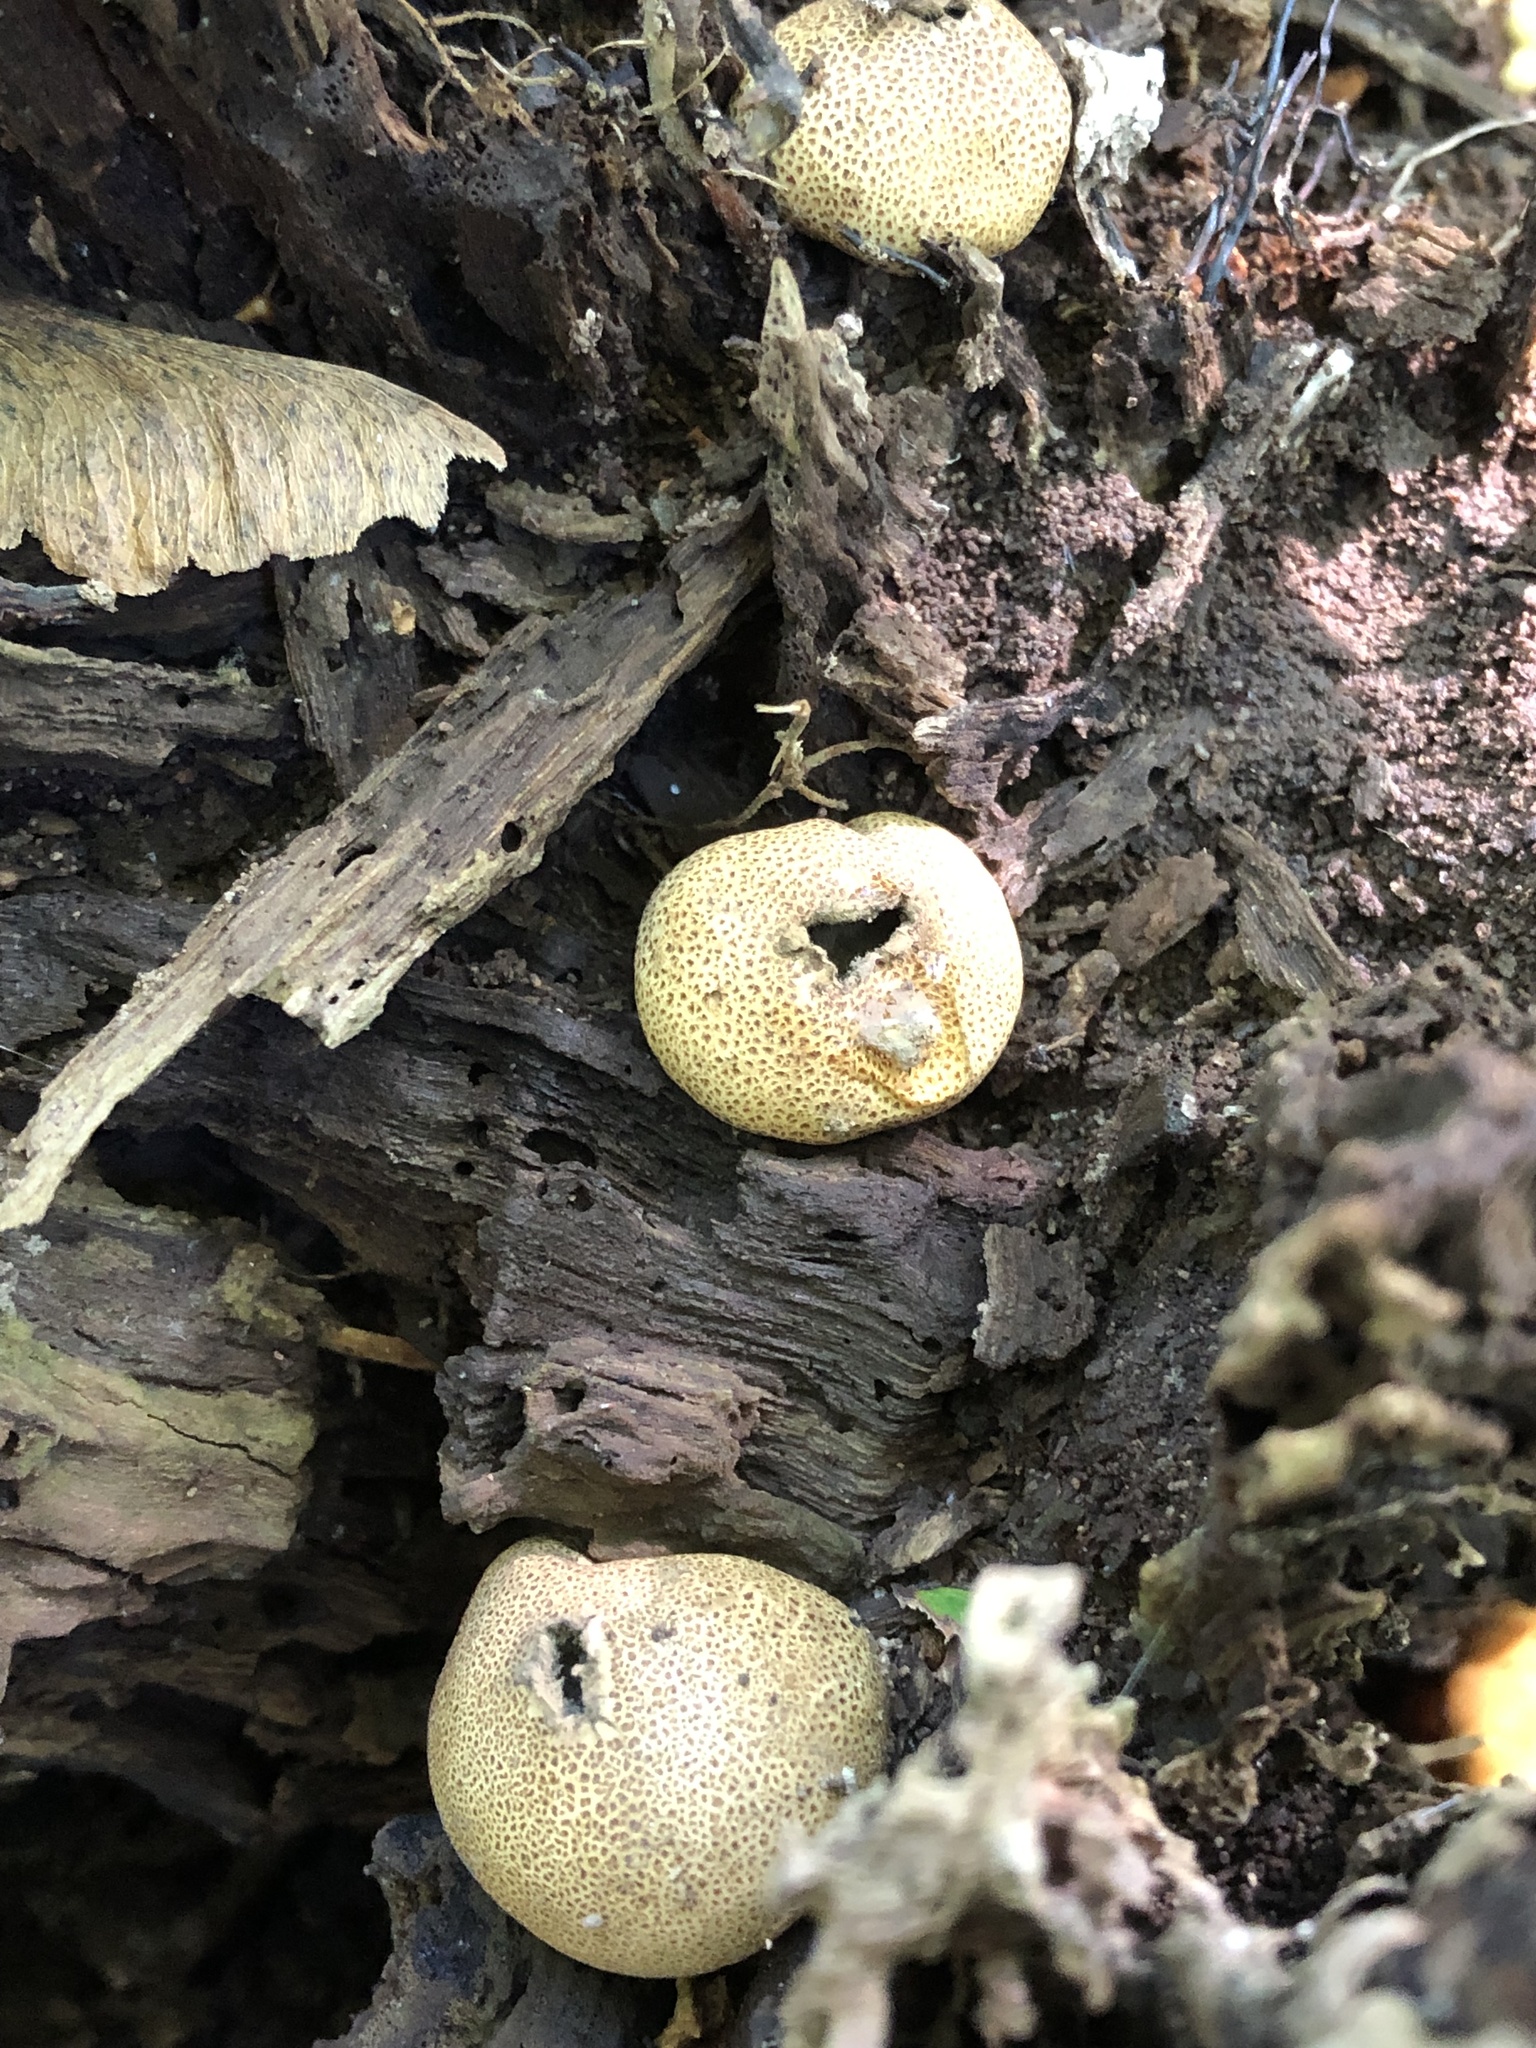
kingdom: Fungi
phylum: Basidiomycota
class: Agaricomycetes
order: Agaricales
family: Lycoperdaceae
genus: Apioperdon
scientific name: Apioperdon pyriforme
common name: Pear-shaped puffball
